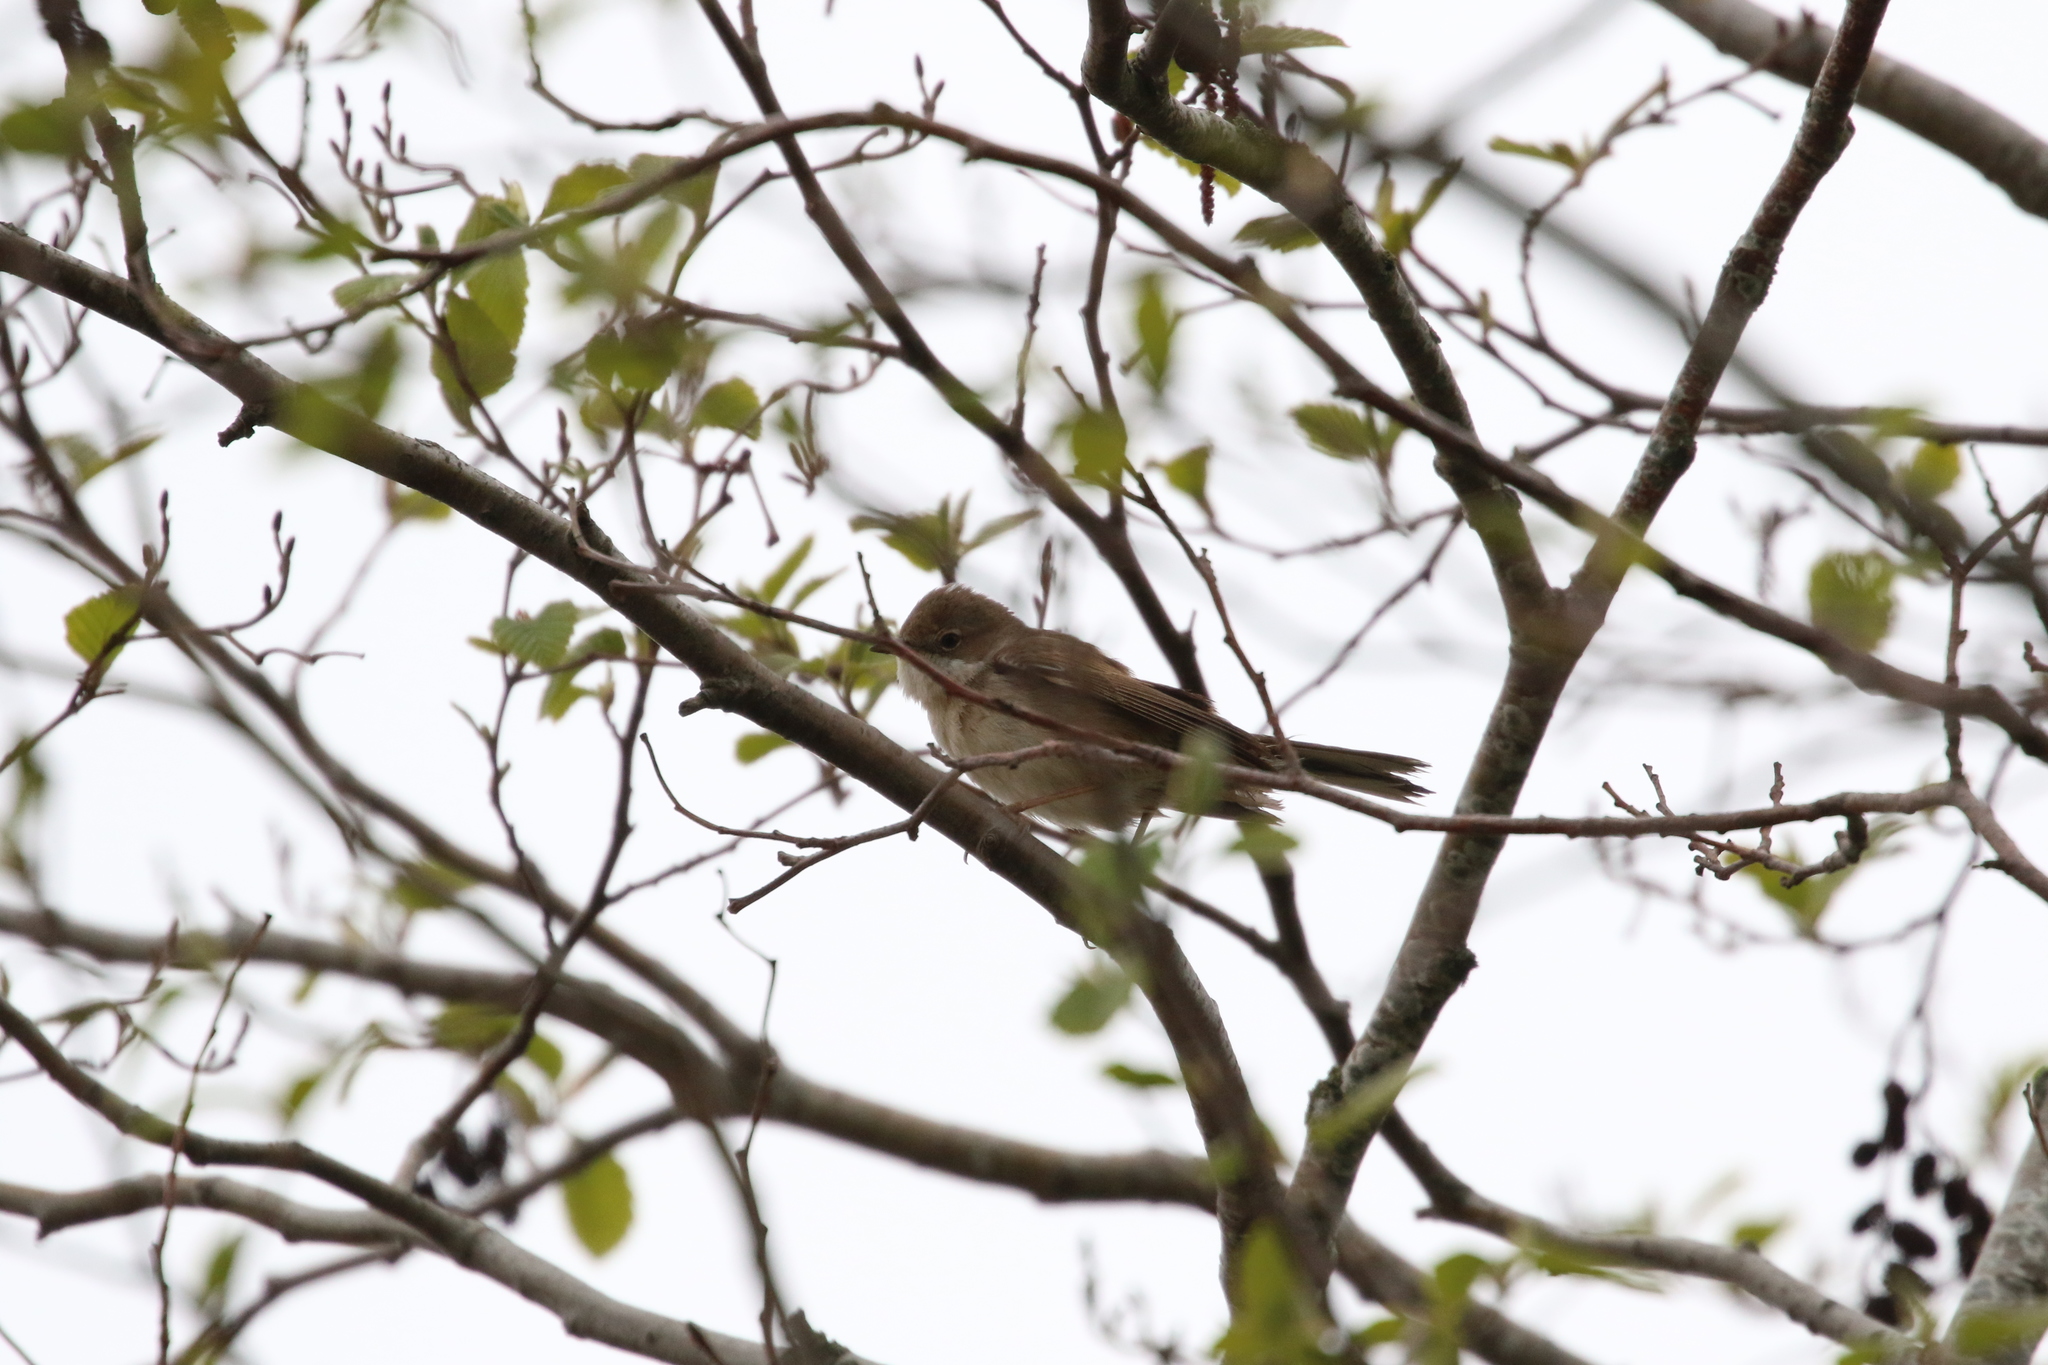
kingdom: Animalia
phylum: Chordata
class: Aves
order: Passeriformes
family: Sylviidae
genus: Sylvia
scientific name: Sylvia communis
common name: Common whitethroat
